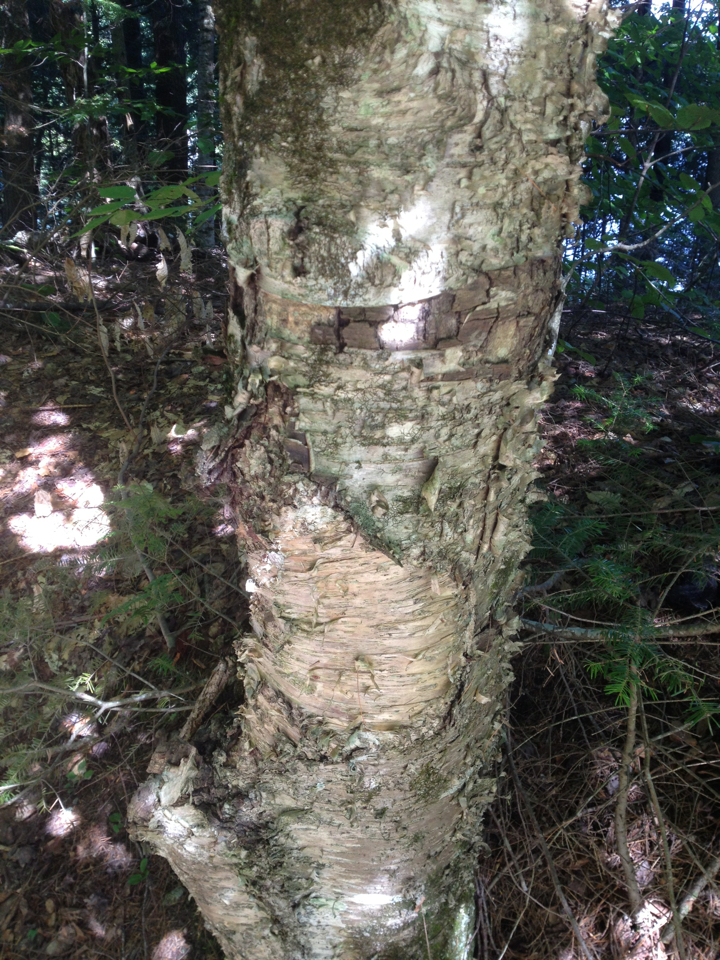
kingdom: Plantae
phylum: Tracheophyta
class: Magnoliopsida
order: Fagales
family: Betulaceae
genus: Betula
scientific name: Betula alleghaniensis
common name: Yellow birch
